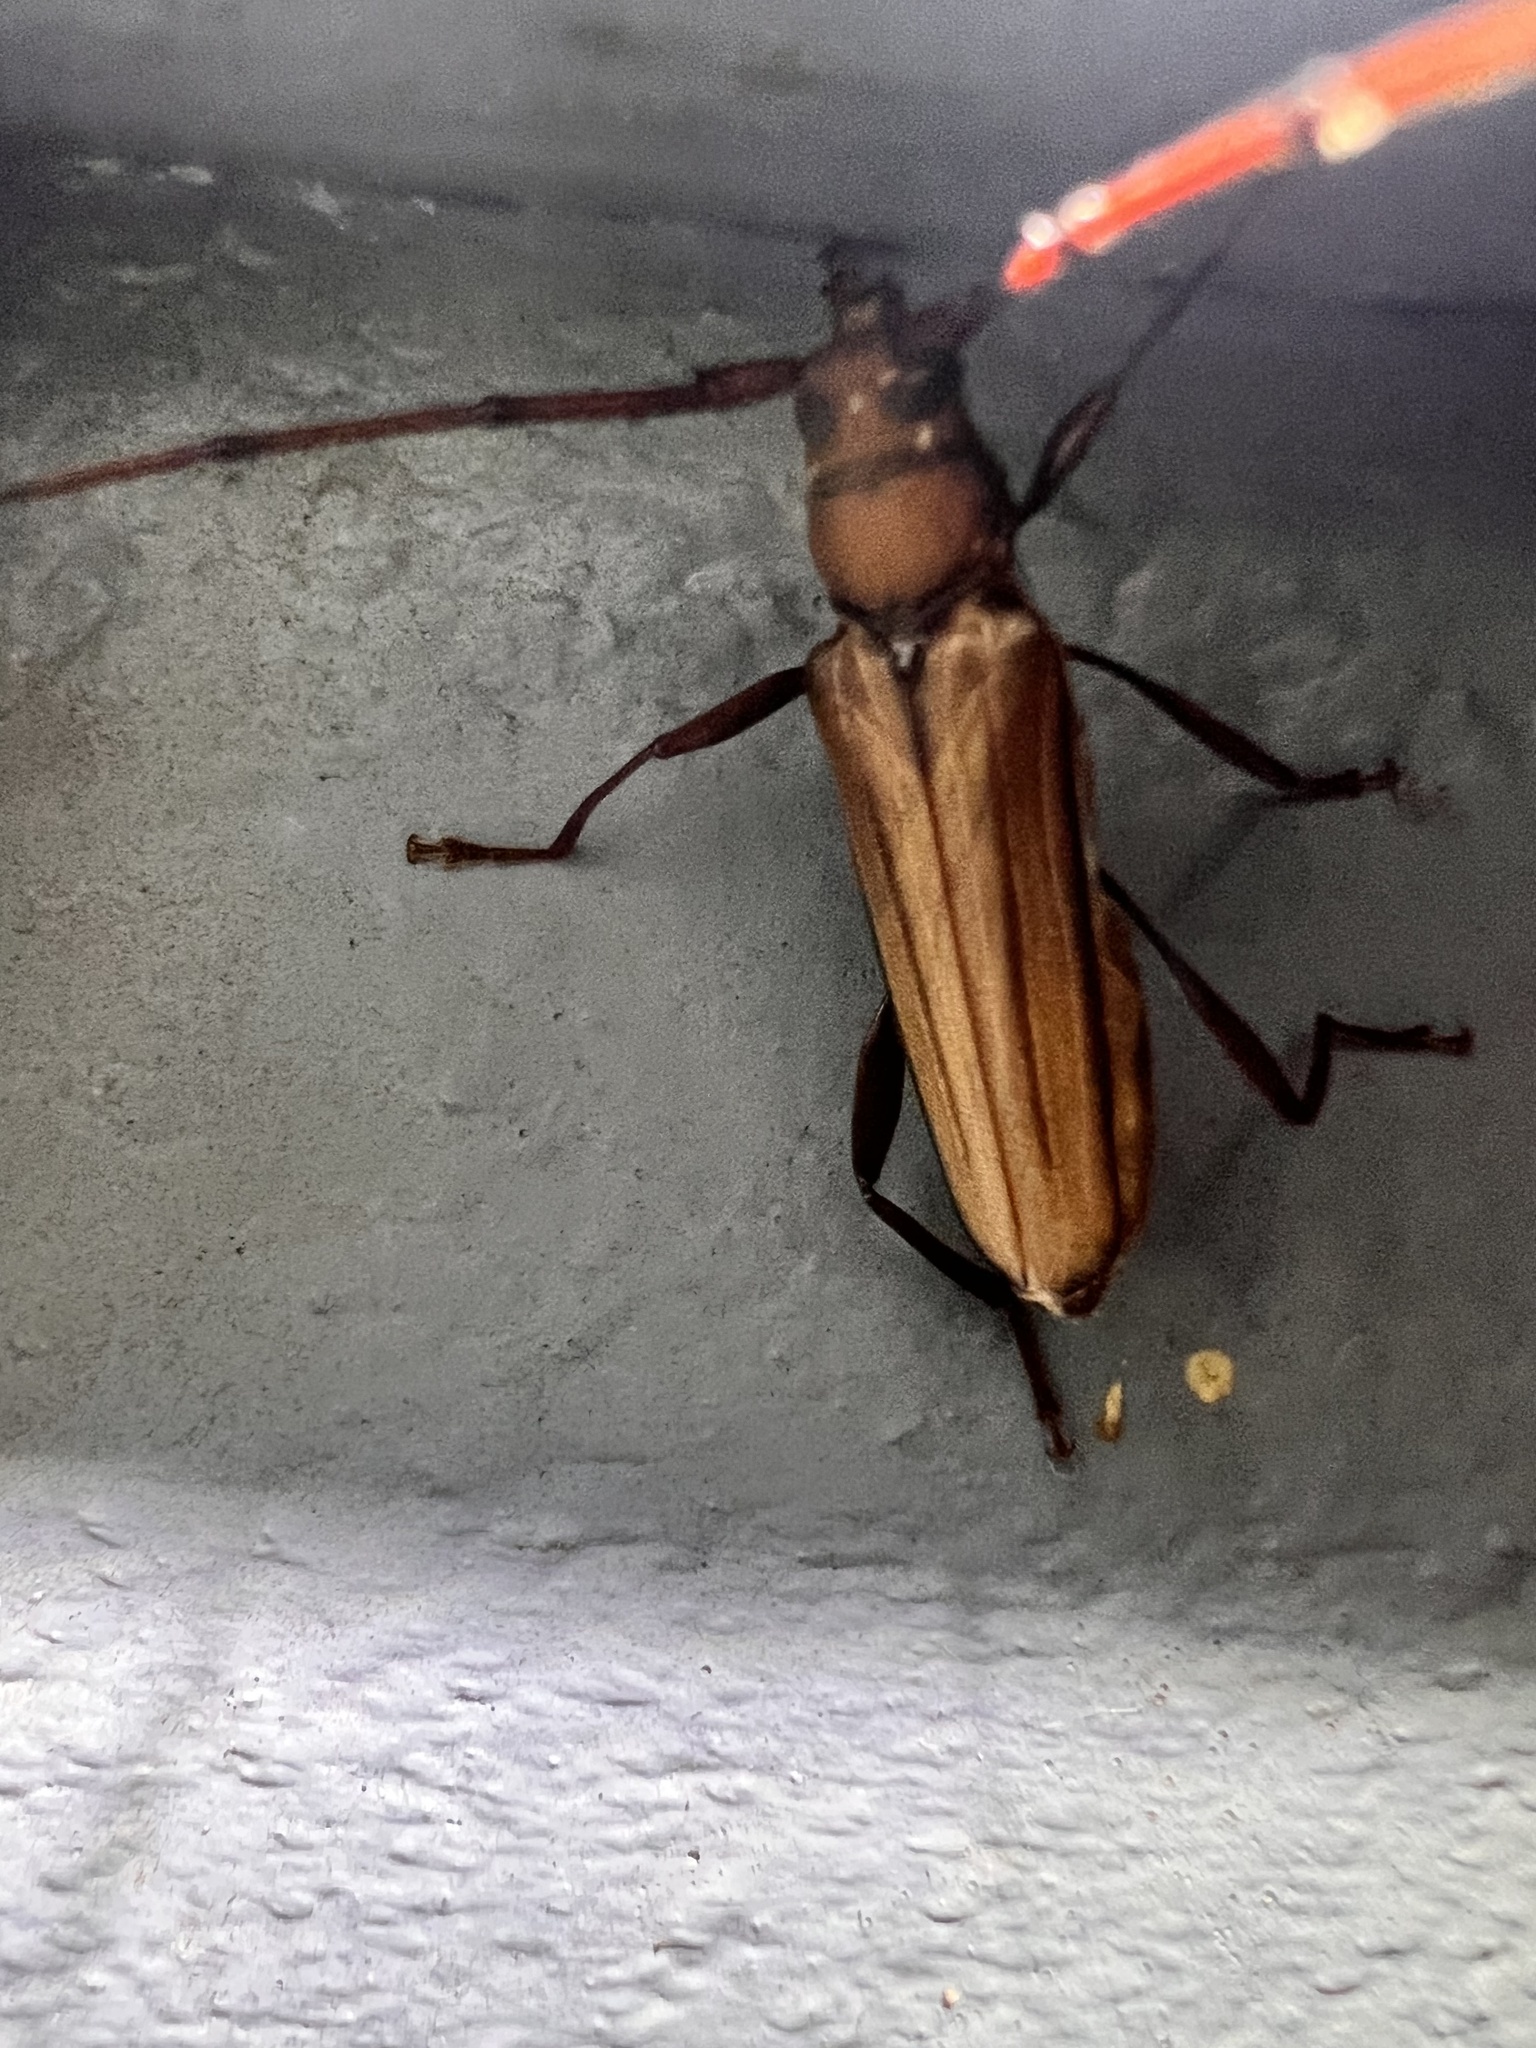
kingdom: Animalia
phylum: Arthropoda
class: Insecta
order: Coleoptera
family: Cerambycidae
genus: Xystrocera
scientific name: Xystrocera globosa
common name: Peach-tree longhorn
